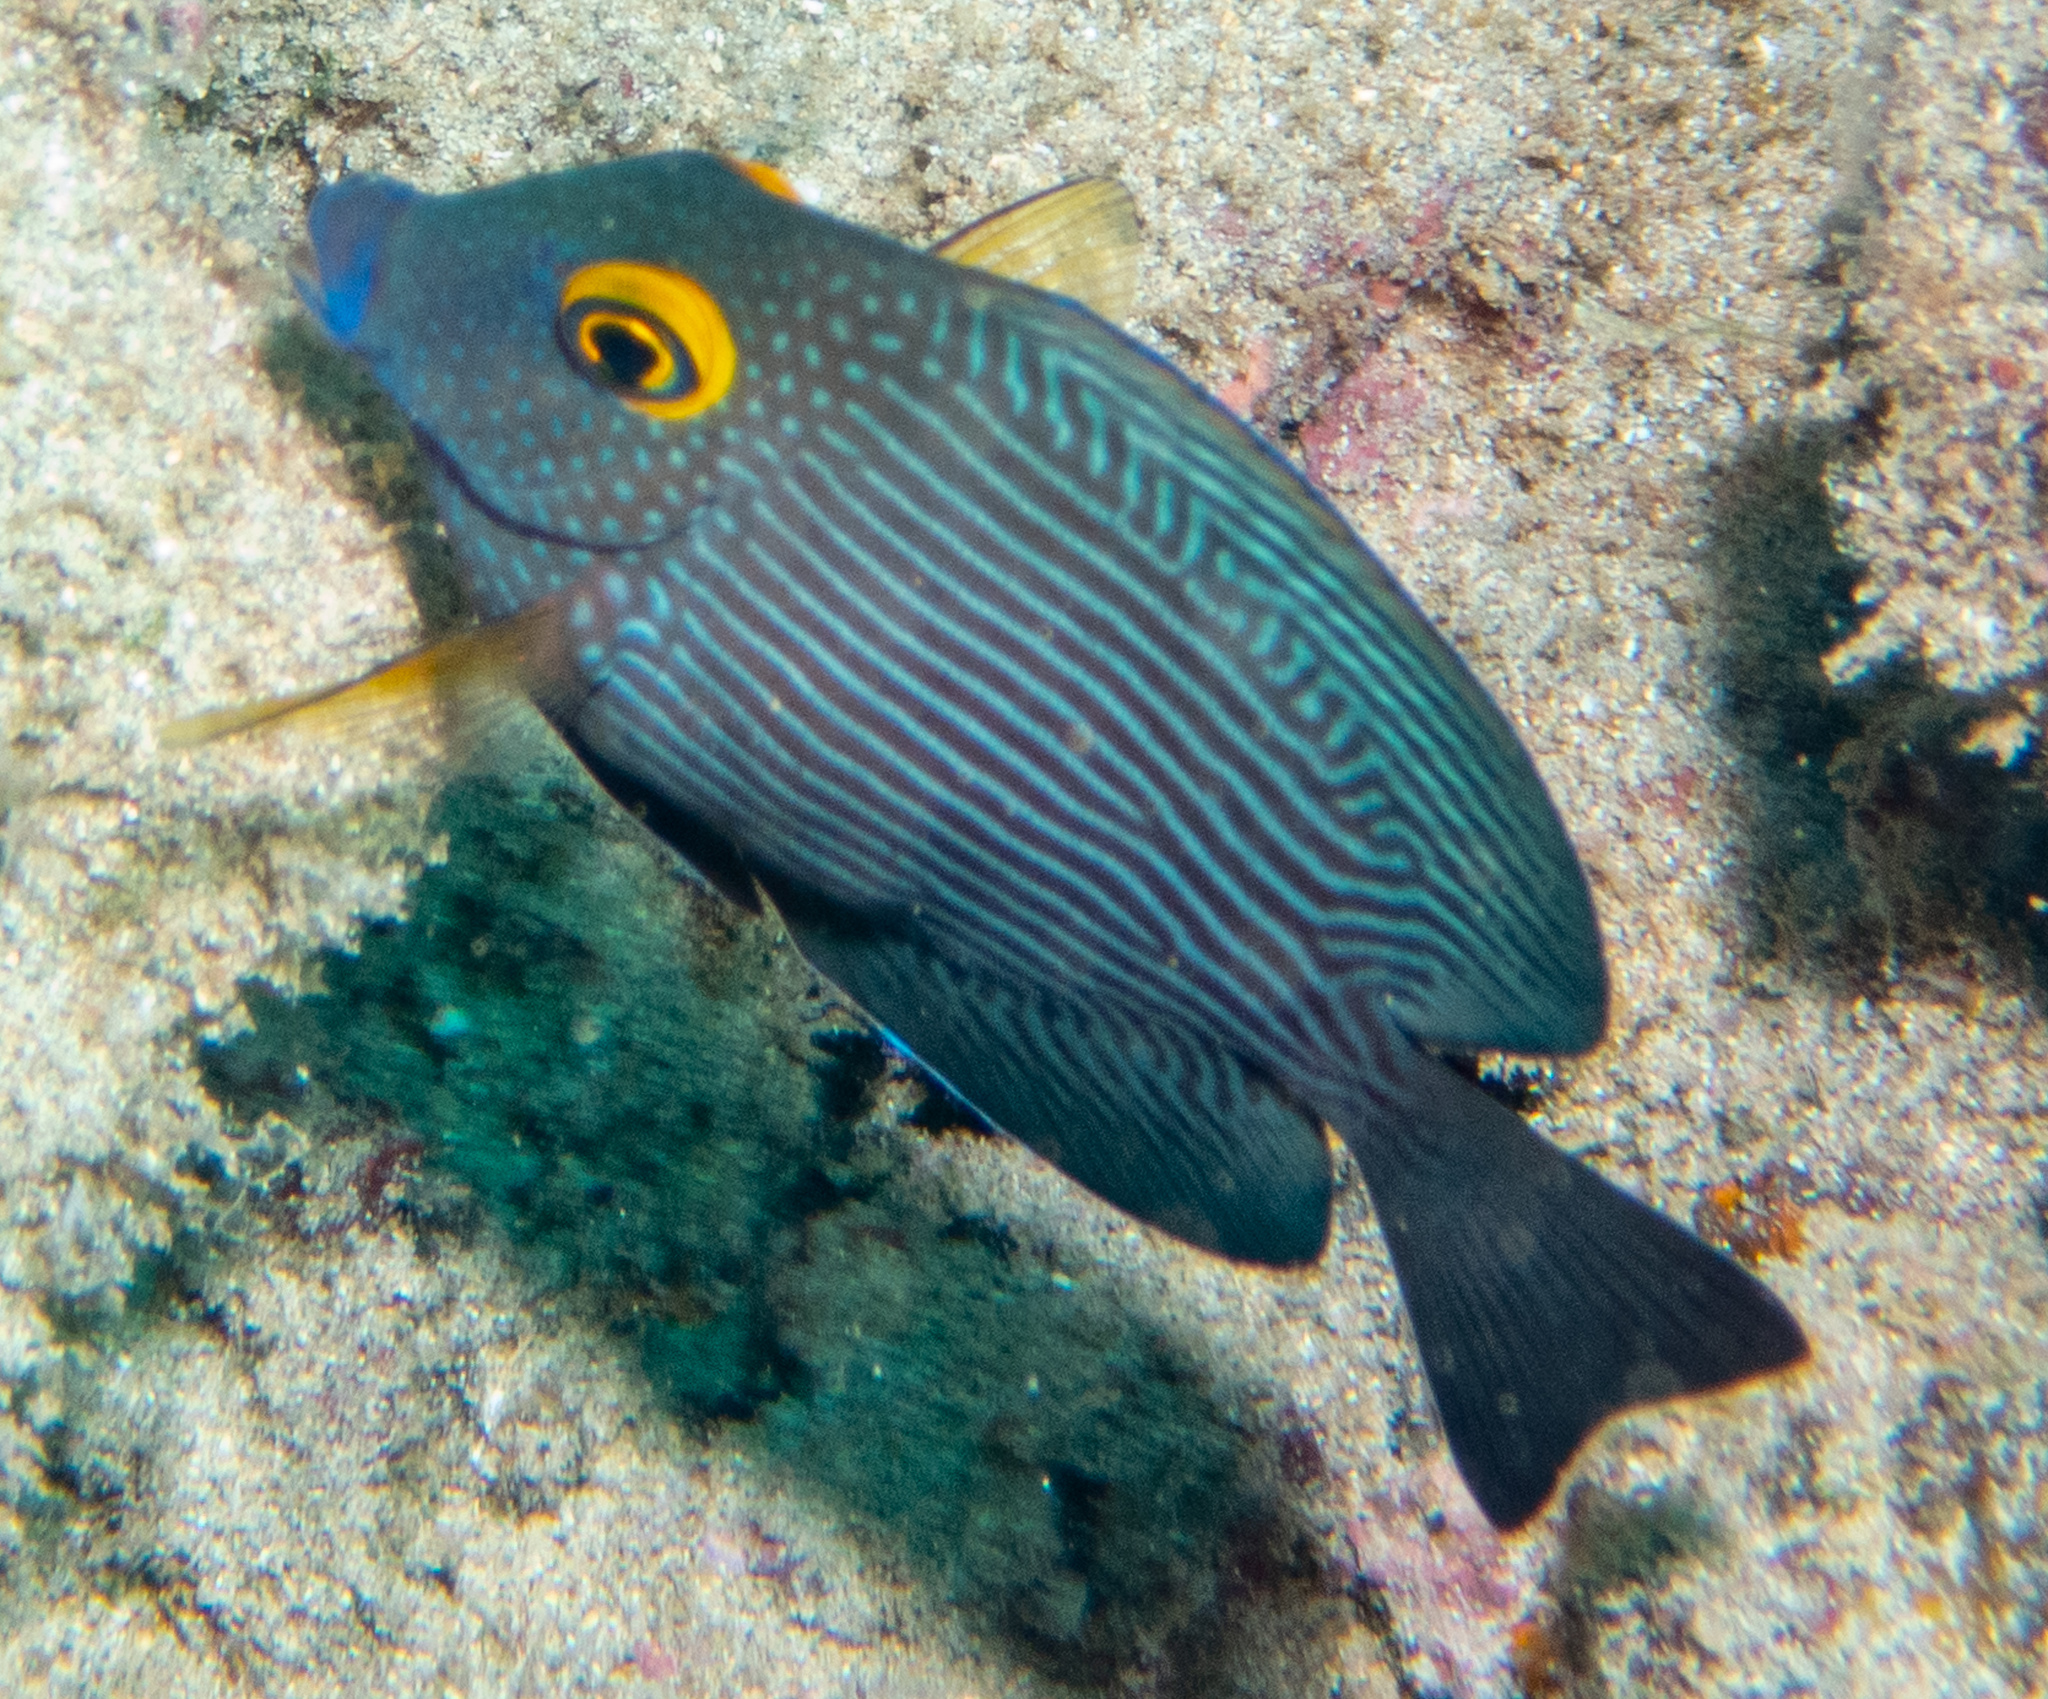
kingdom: Animalia
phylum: Chordata
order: Perciformes
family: Acanthuridae
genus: Ctenochaetus
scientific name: Ctenochaetus strigosus
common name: Bristletoothed surgeonfish
